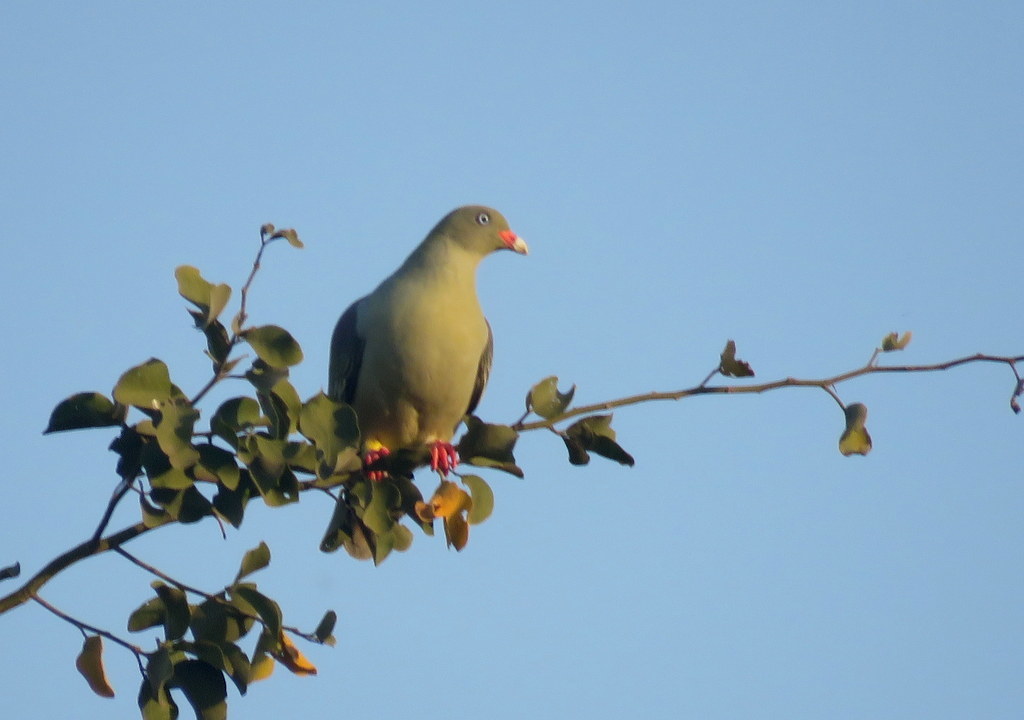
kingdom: Animalia
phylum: Chordata
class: Aves
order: Columbiformes
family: Columbidae
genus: Treron
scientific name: Treron calvus
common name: African green pigeon
